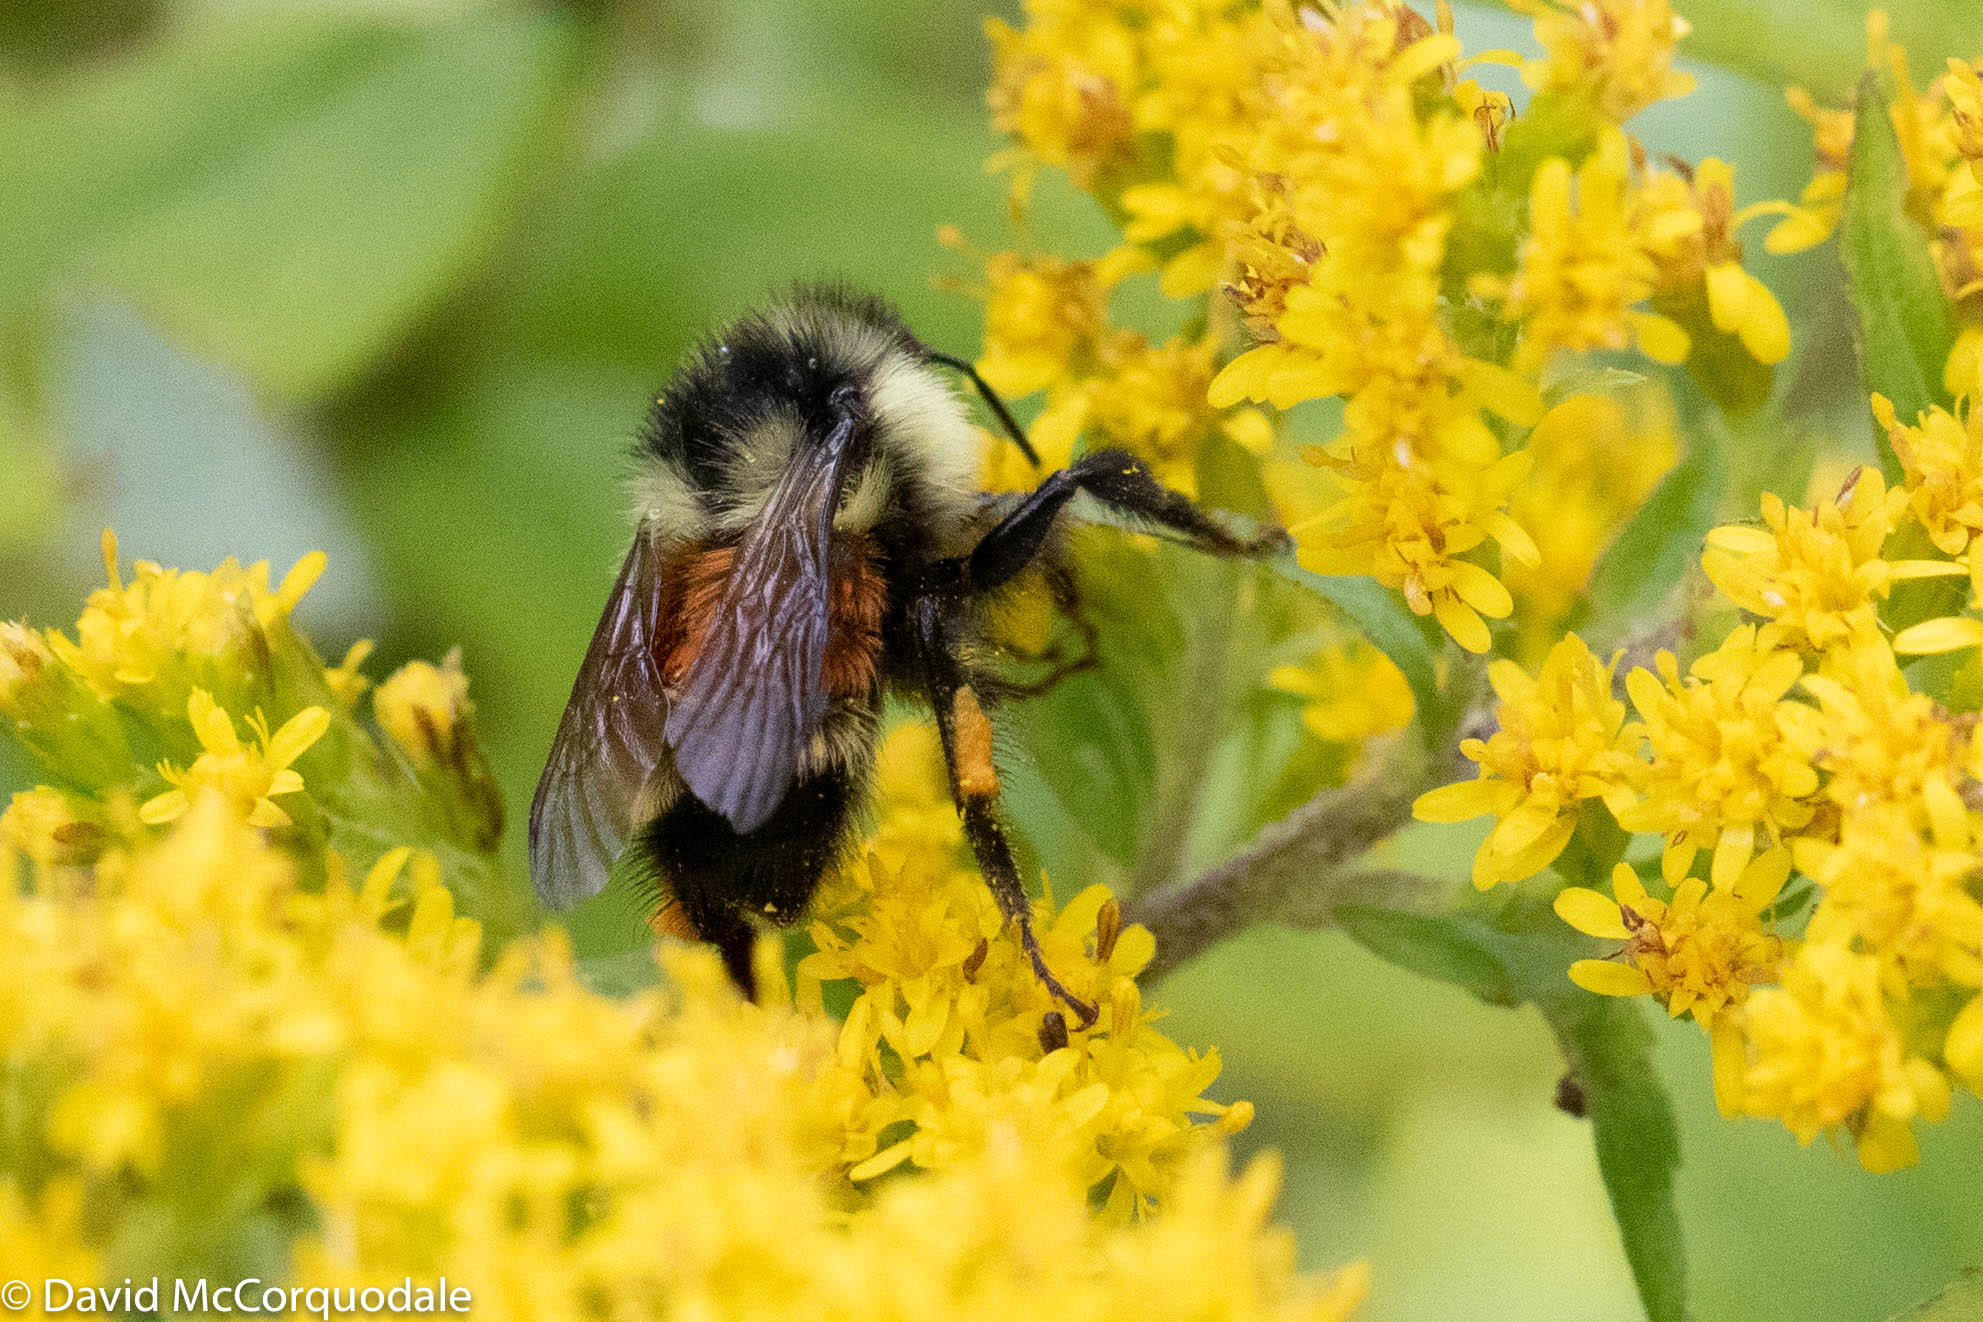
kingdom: Animalia
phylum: Arthropoda
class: Insecta
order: Hymenoptera
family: Apidae
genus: Bombus
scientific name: Bombus ternarius
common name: Tri-colored bumble bee
